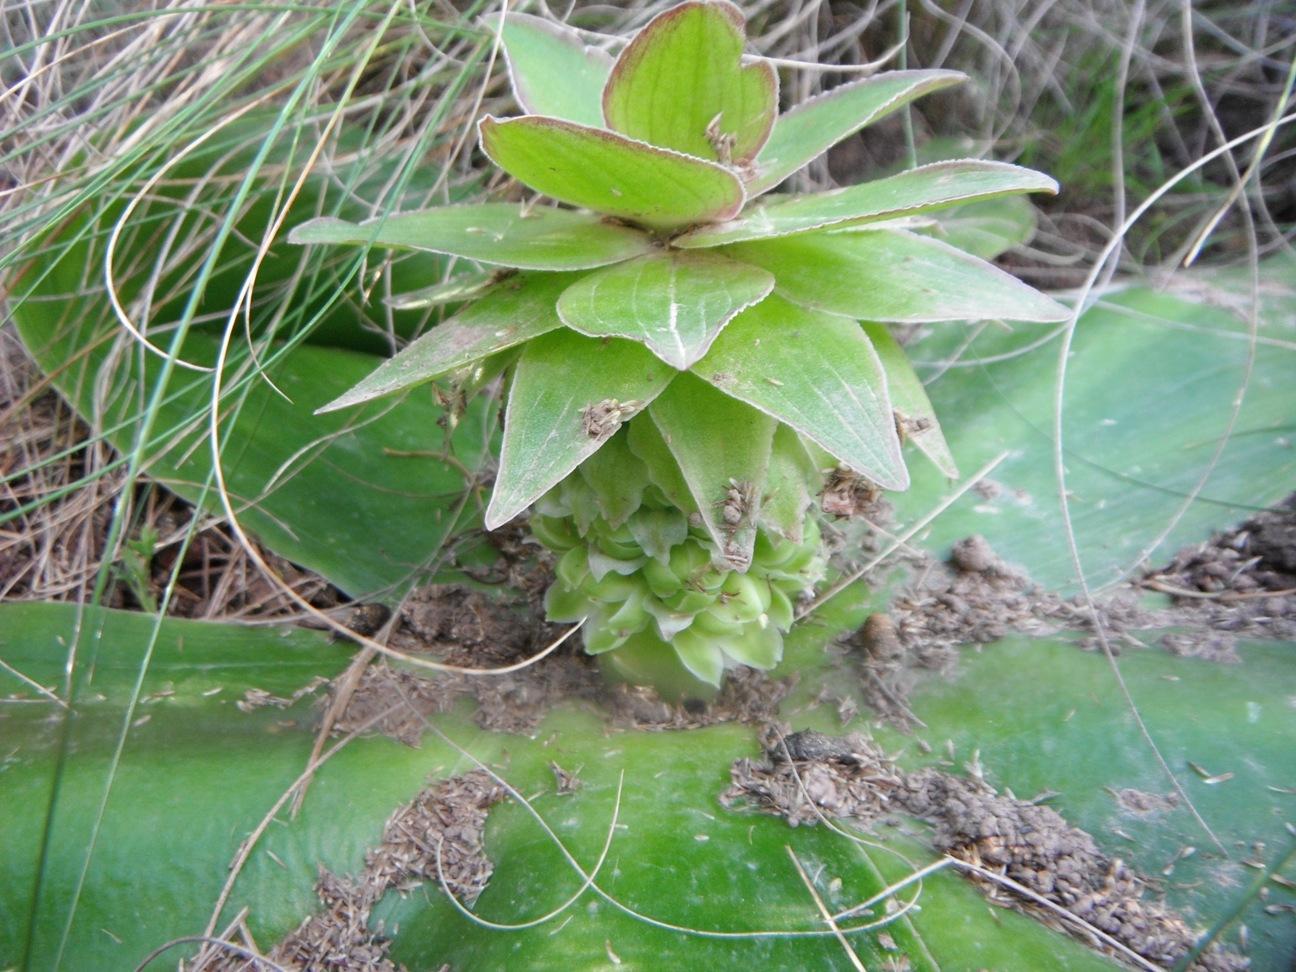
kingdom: Plantae
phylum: Tracheophyta
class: Liliopsida
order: Asparagales
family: Asparagaceae
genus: Eucomis
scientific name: Eucomis regia
